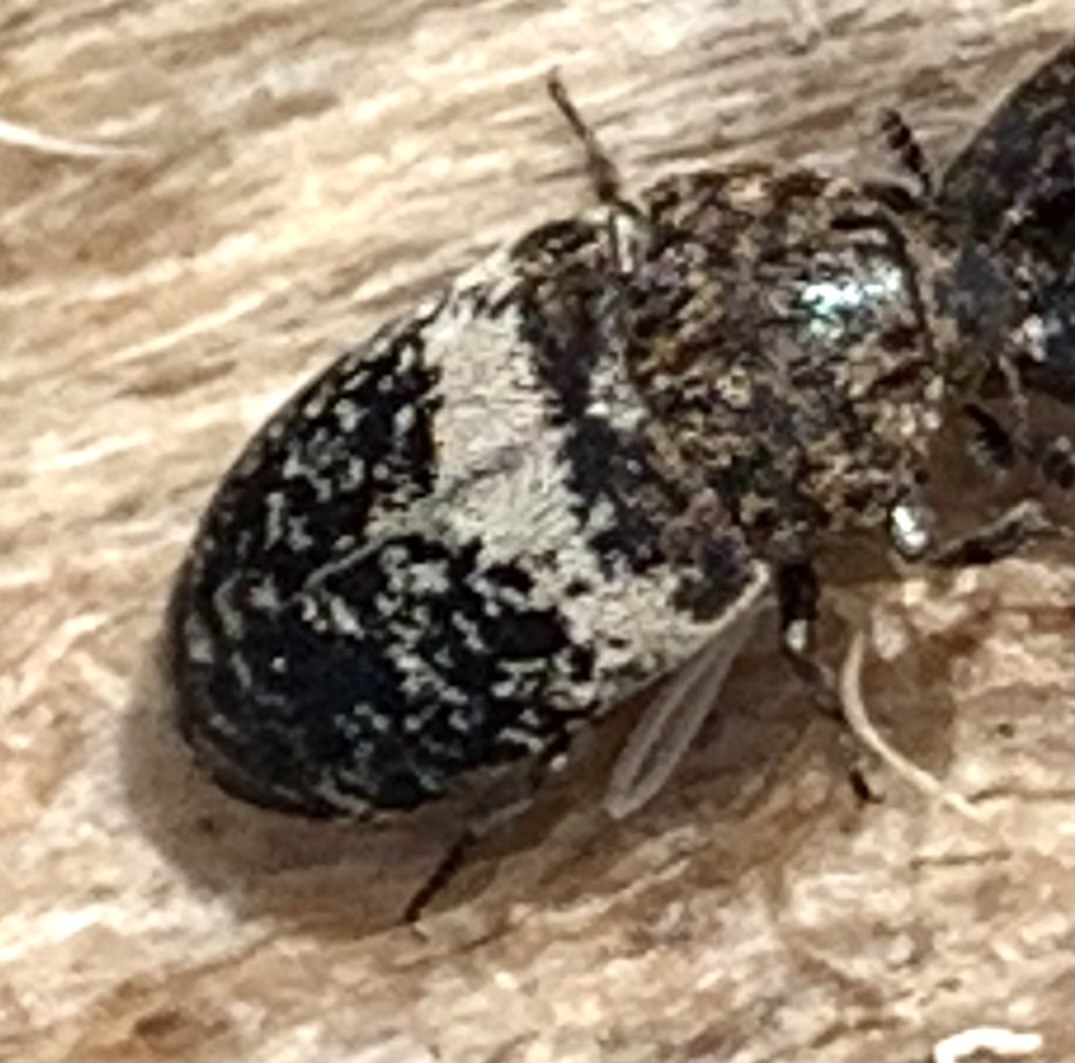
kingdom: Animalia
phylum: Arthropoda
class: Insecta
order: Coleoptera
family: Dermestidae
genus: Dermestes
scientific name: Dermestes fasciatus
